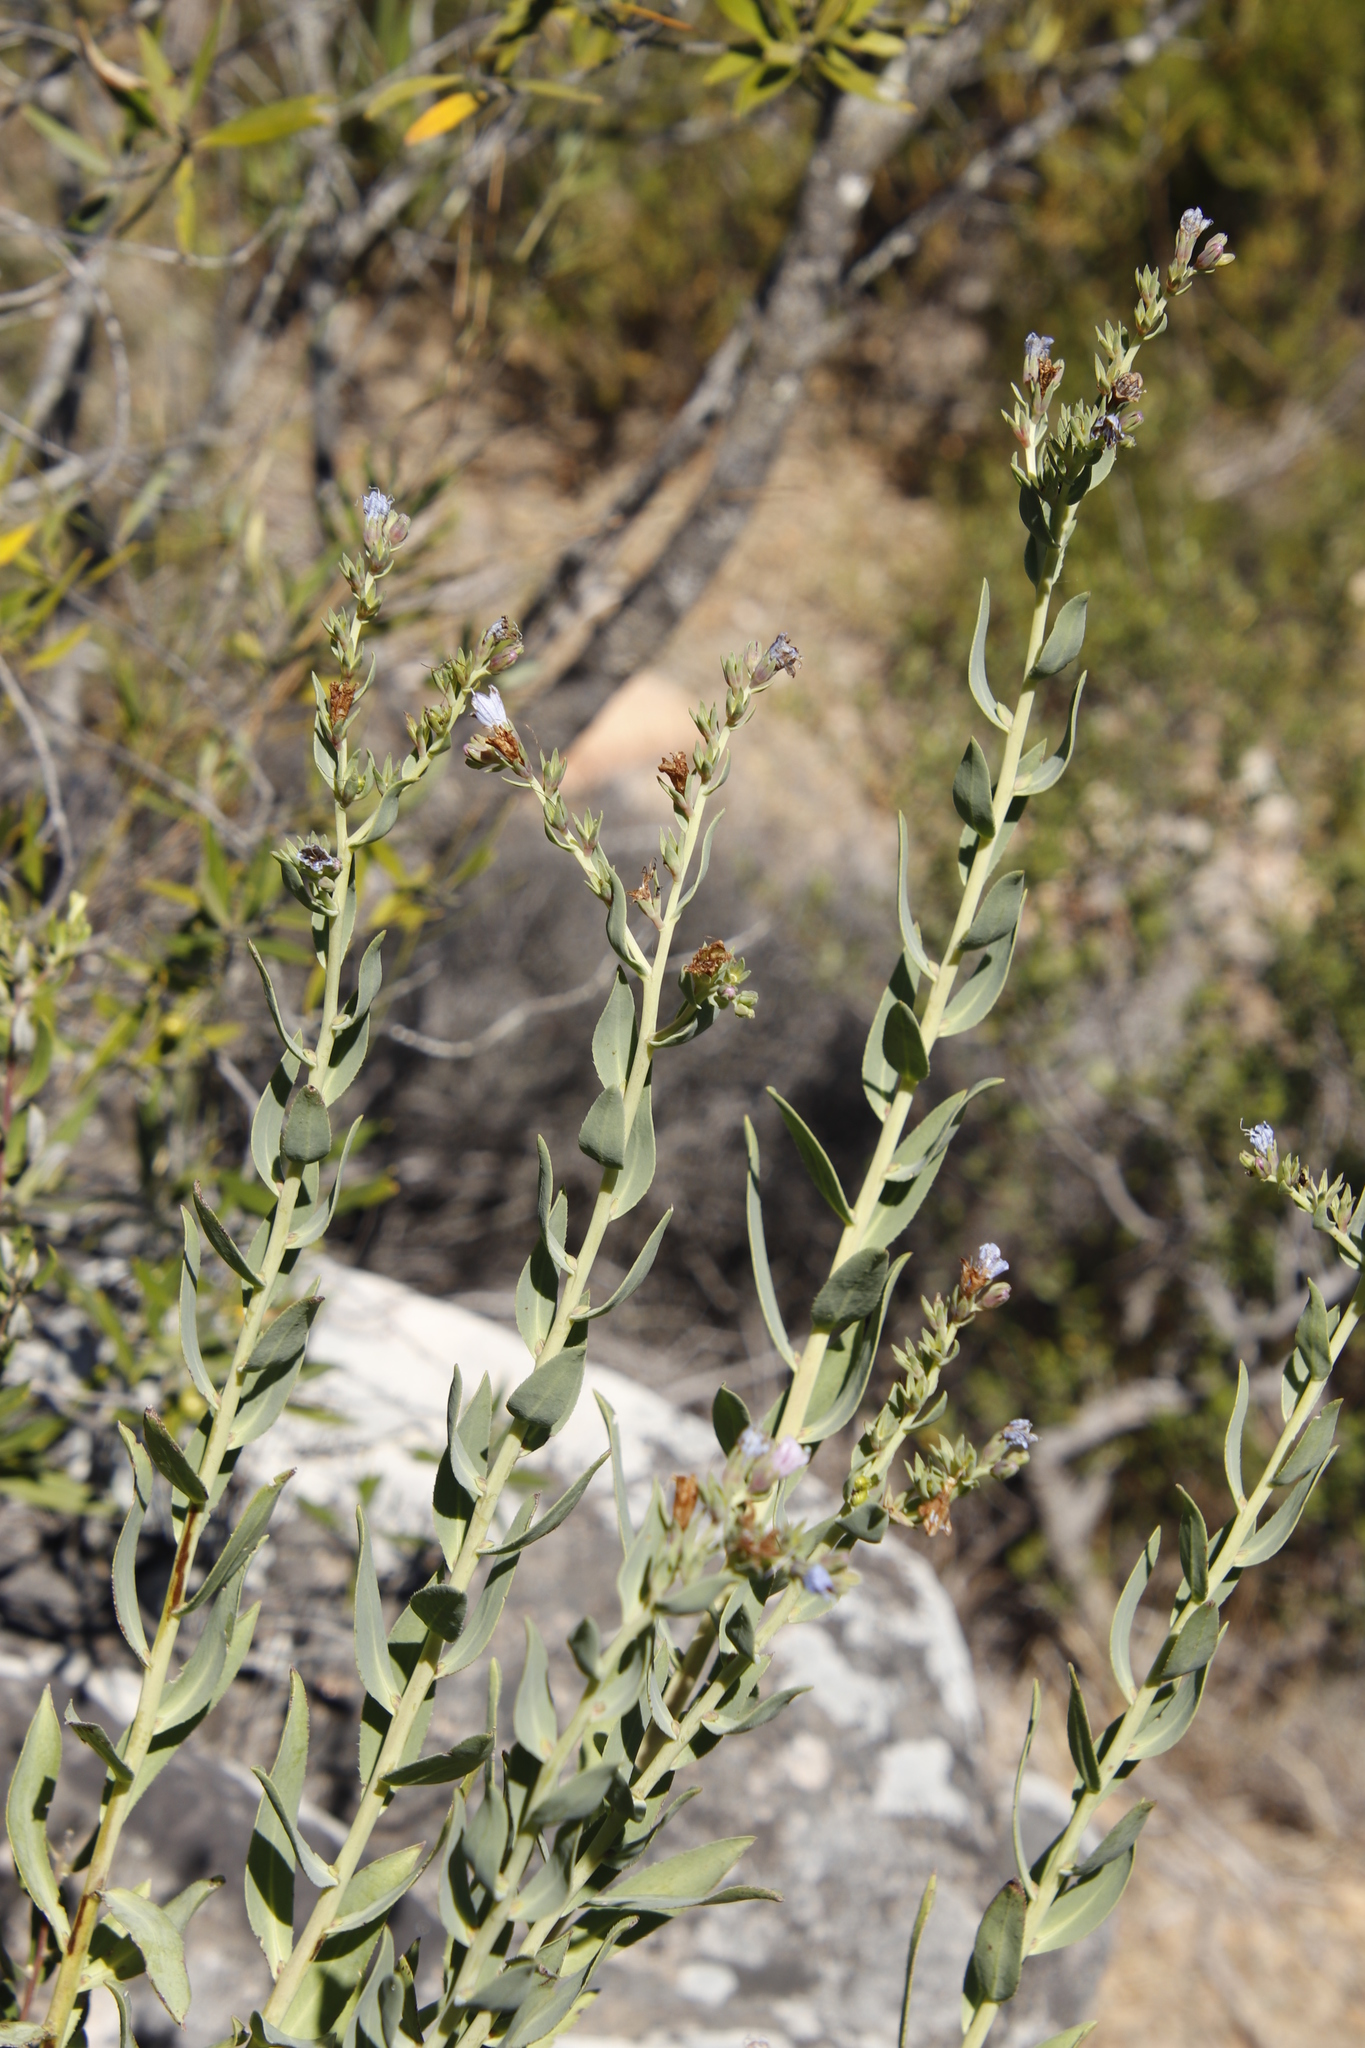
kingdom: Plantae
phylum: Tracheophyta
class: Magnoliopsida
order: Boraginales
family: Boraginaceae
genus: Lobostemon
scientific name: Lobostemon glaucophyllus
